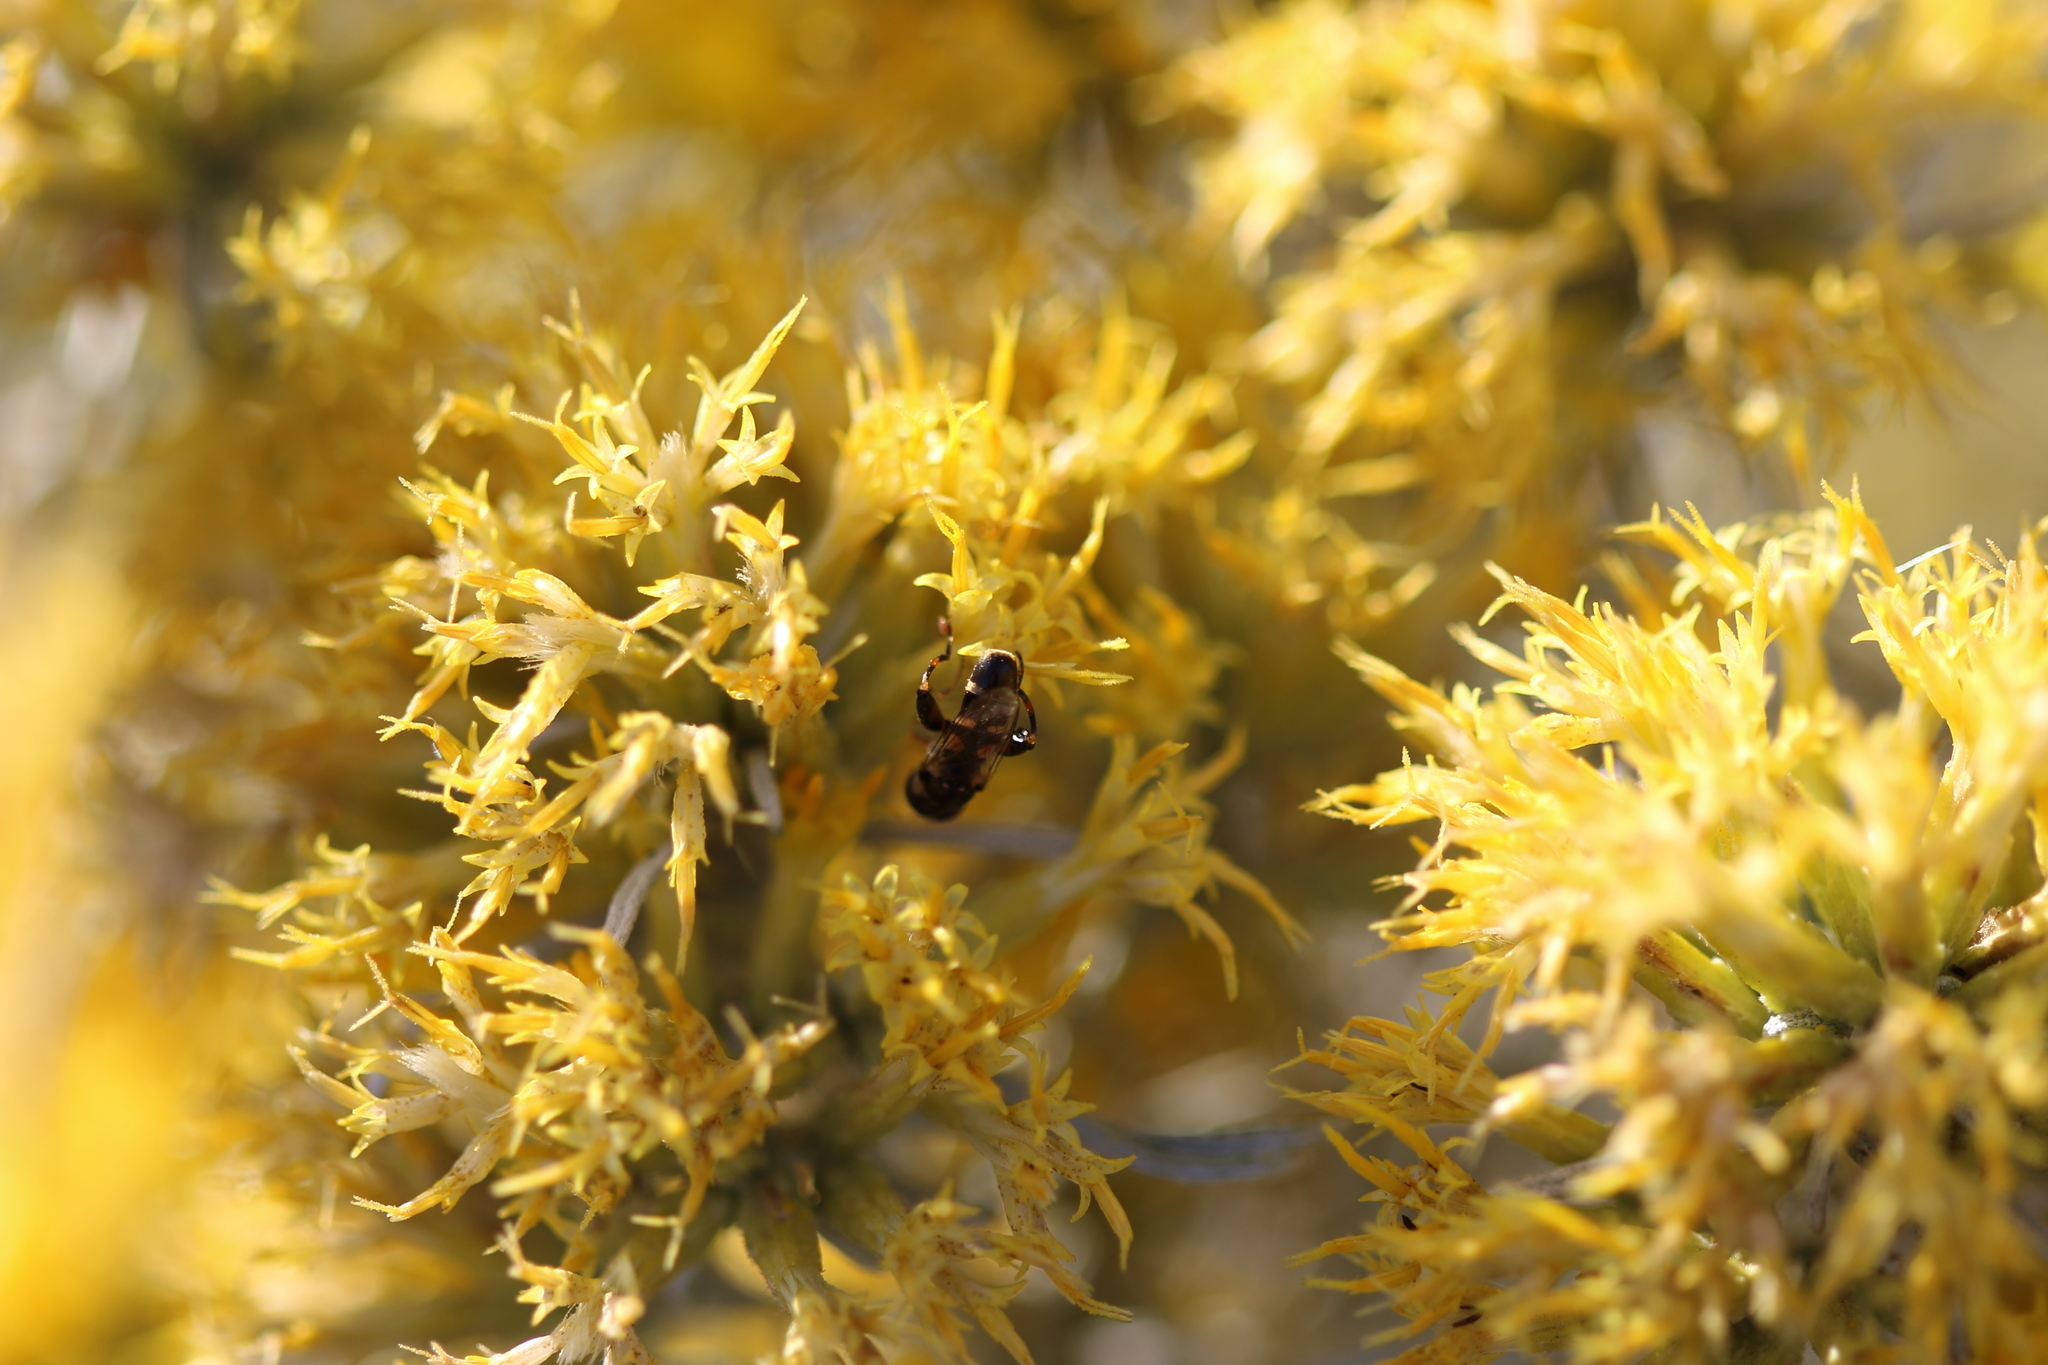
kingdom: Animalia
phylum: Arthropoda
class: Insecta
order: Diptera
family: Syrphidae
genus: Syritta
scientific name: Syritta pipiens
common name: Hover fly
